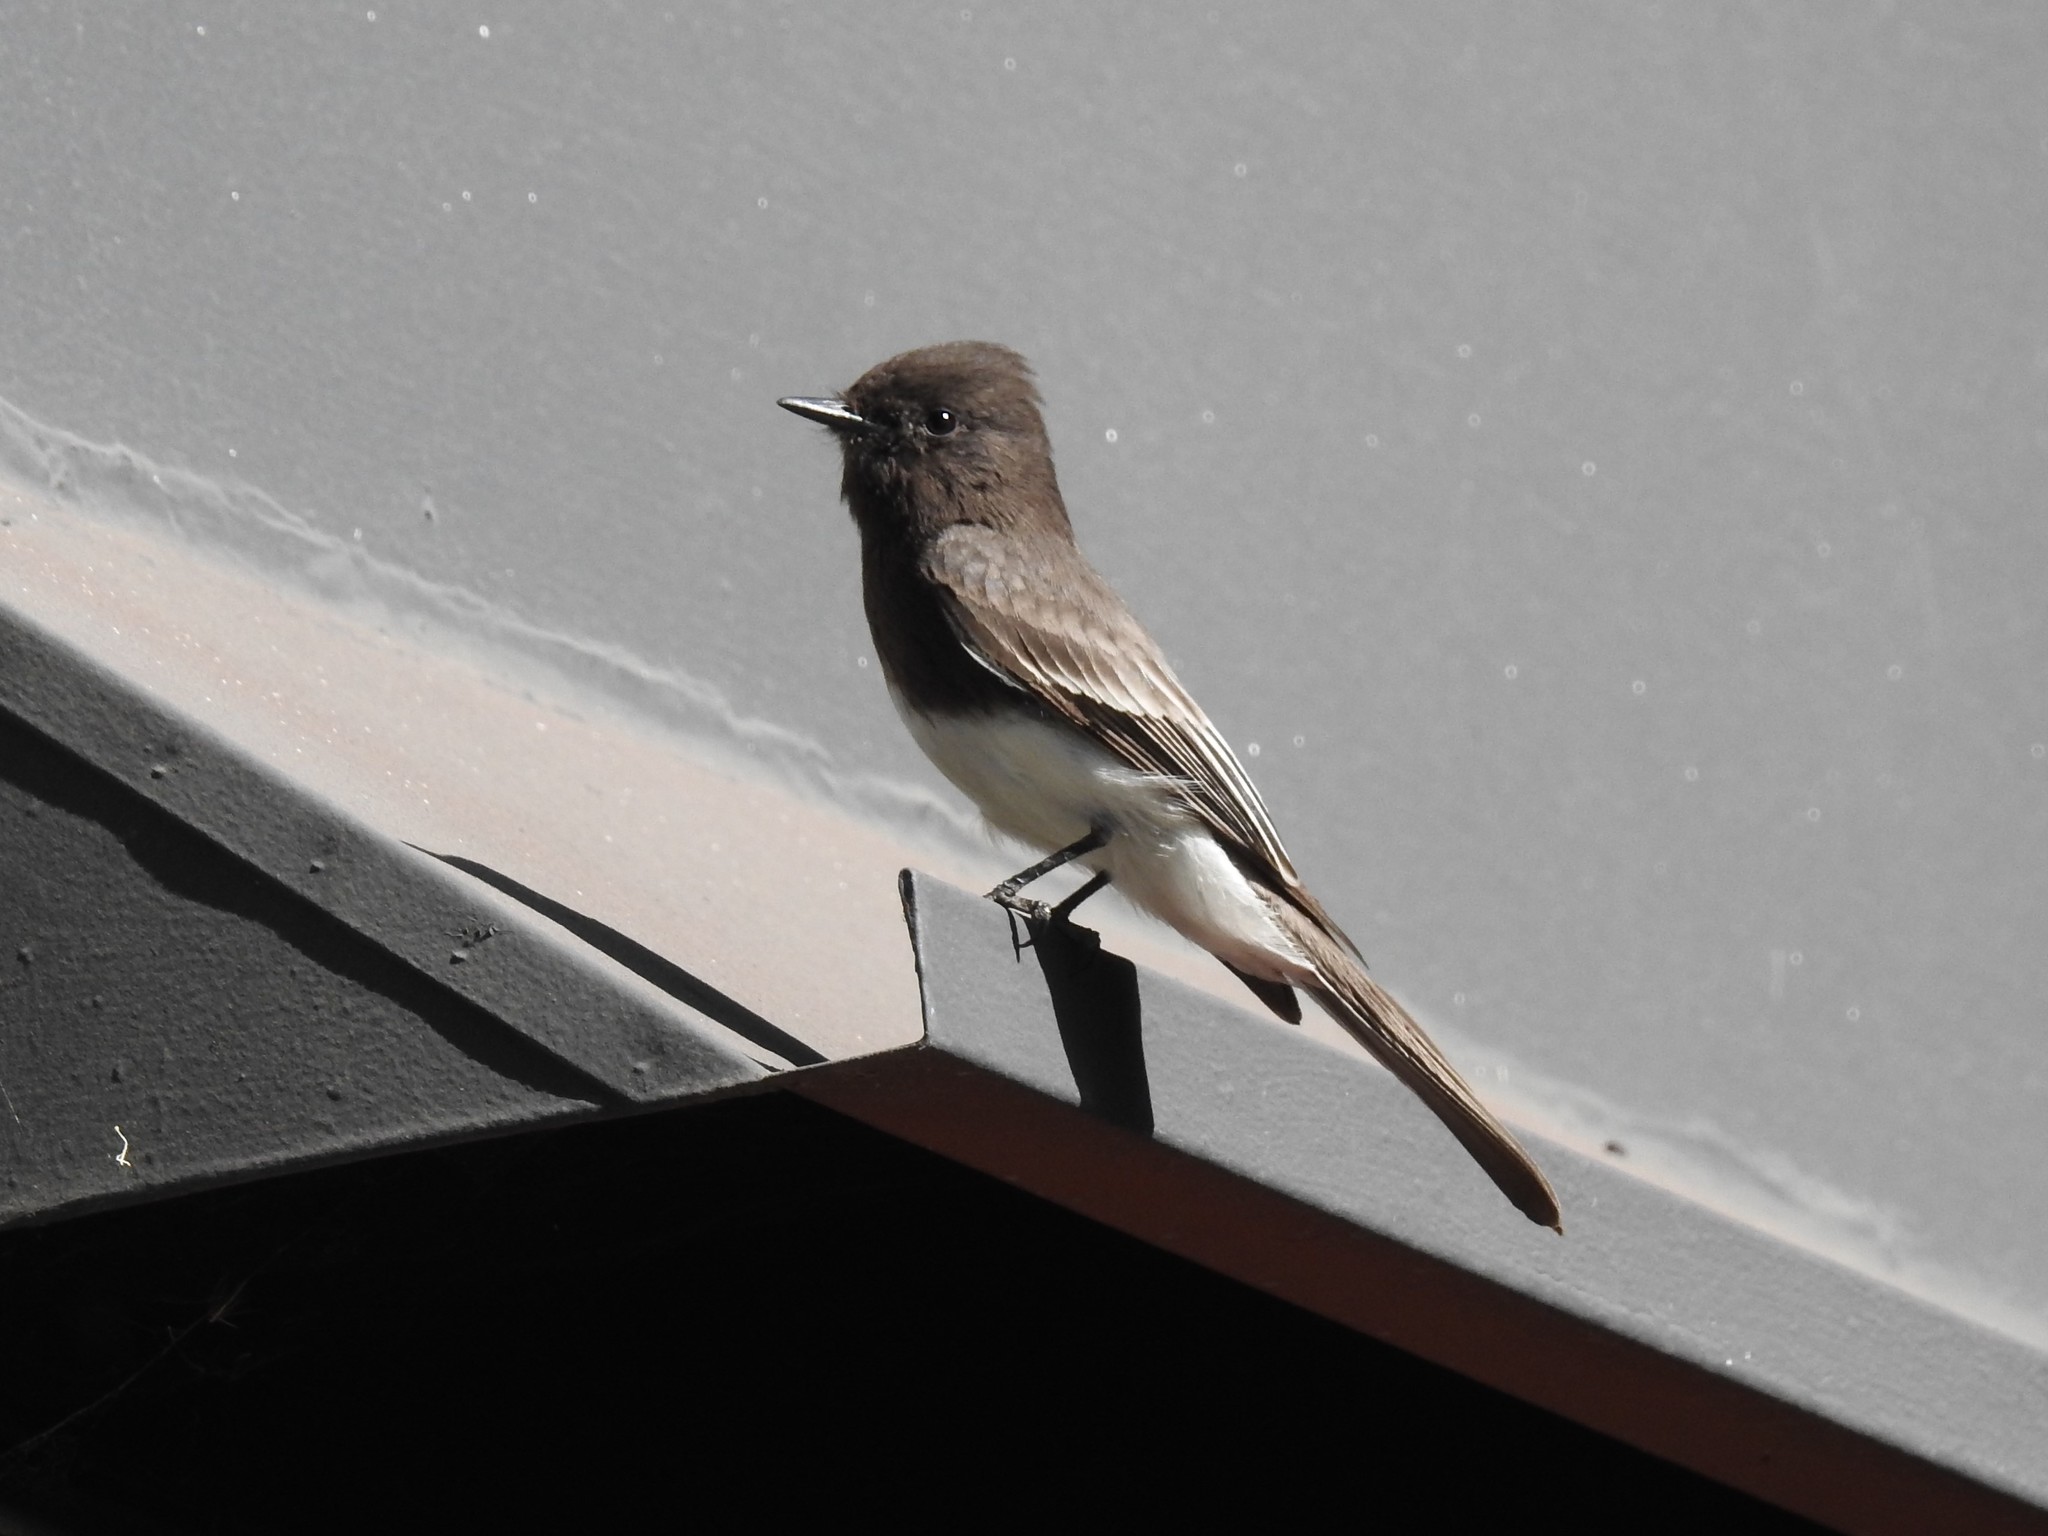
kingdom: Animalia
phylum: Chordata
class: Aves
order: Passeriformes
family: Tyrannidae
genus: Sayornis
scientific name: Sayornis nigricans
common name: Black phoebe
